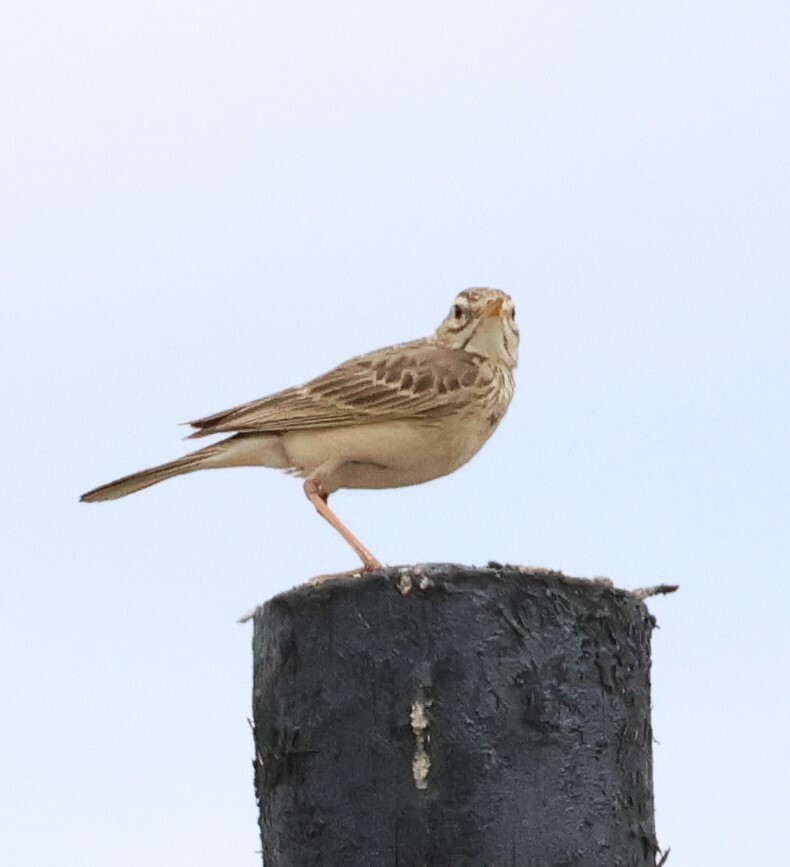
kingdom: Animalia
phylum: Chordata
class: Aves
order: Passeriformes
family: Motacillidae
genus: Anthus
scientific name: Anthus cinnamomeus
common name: African pipit
